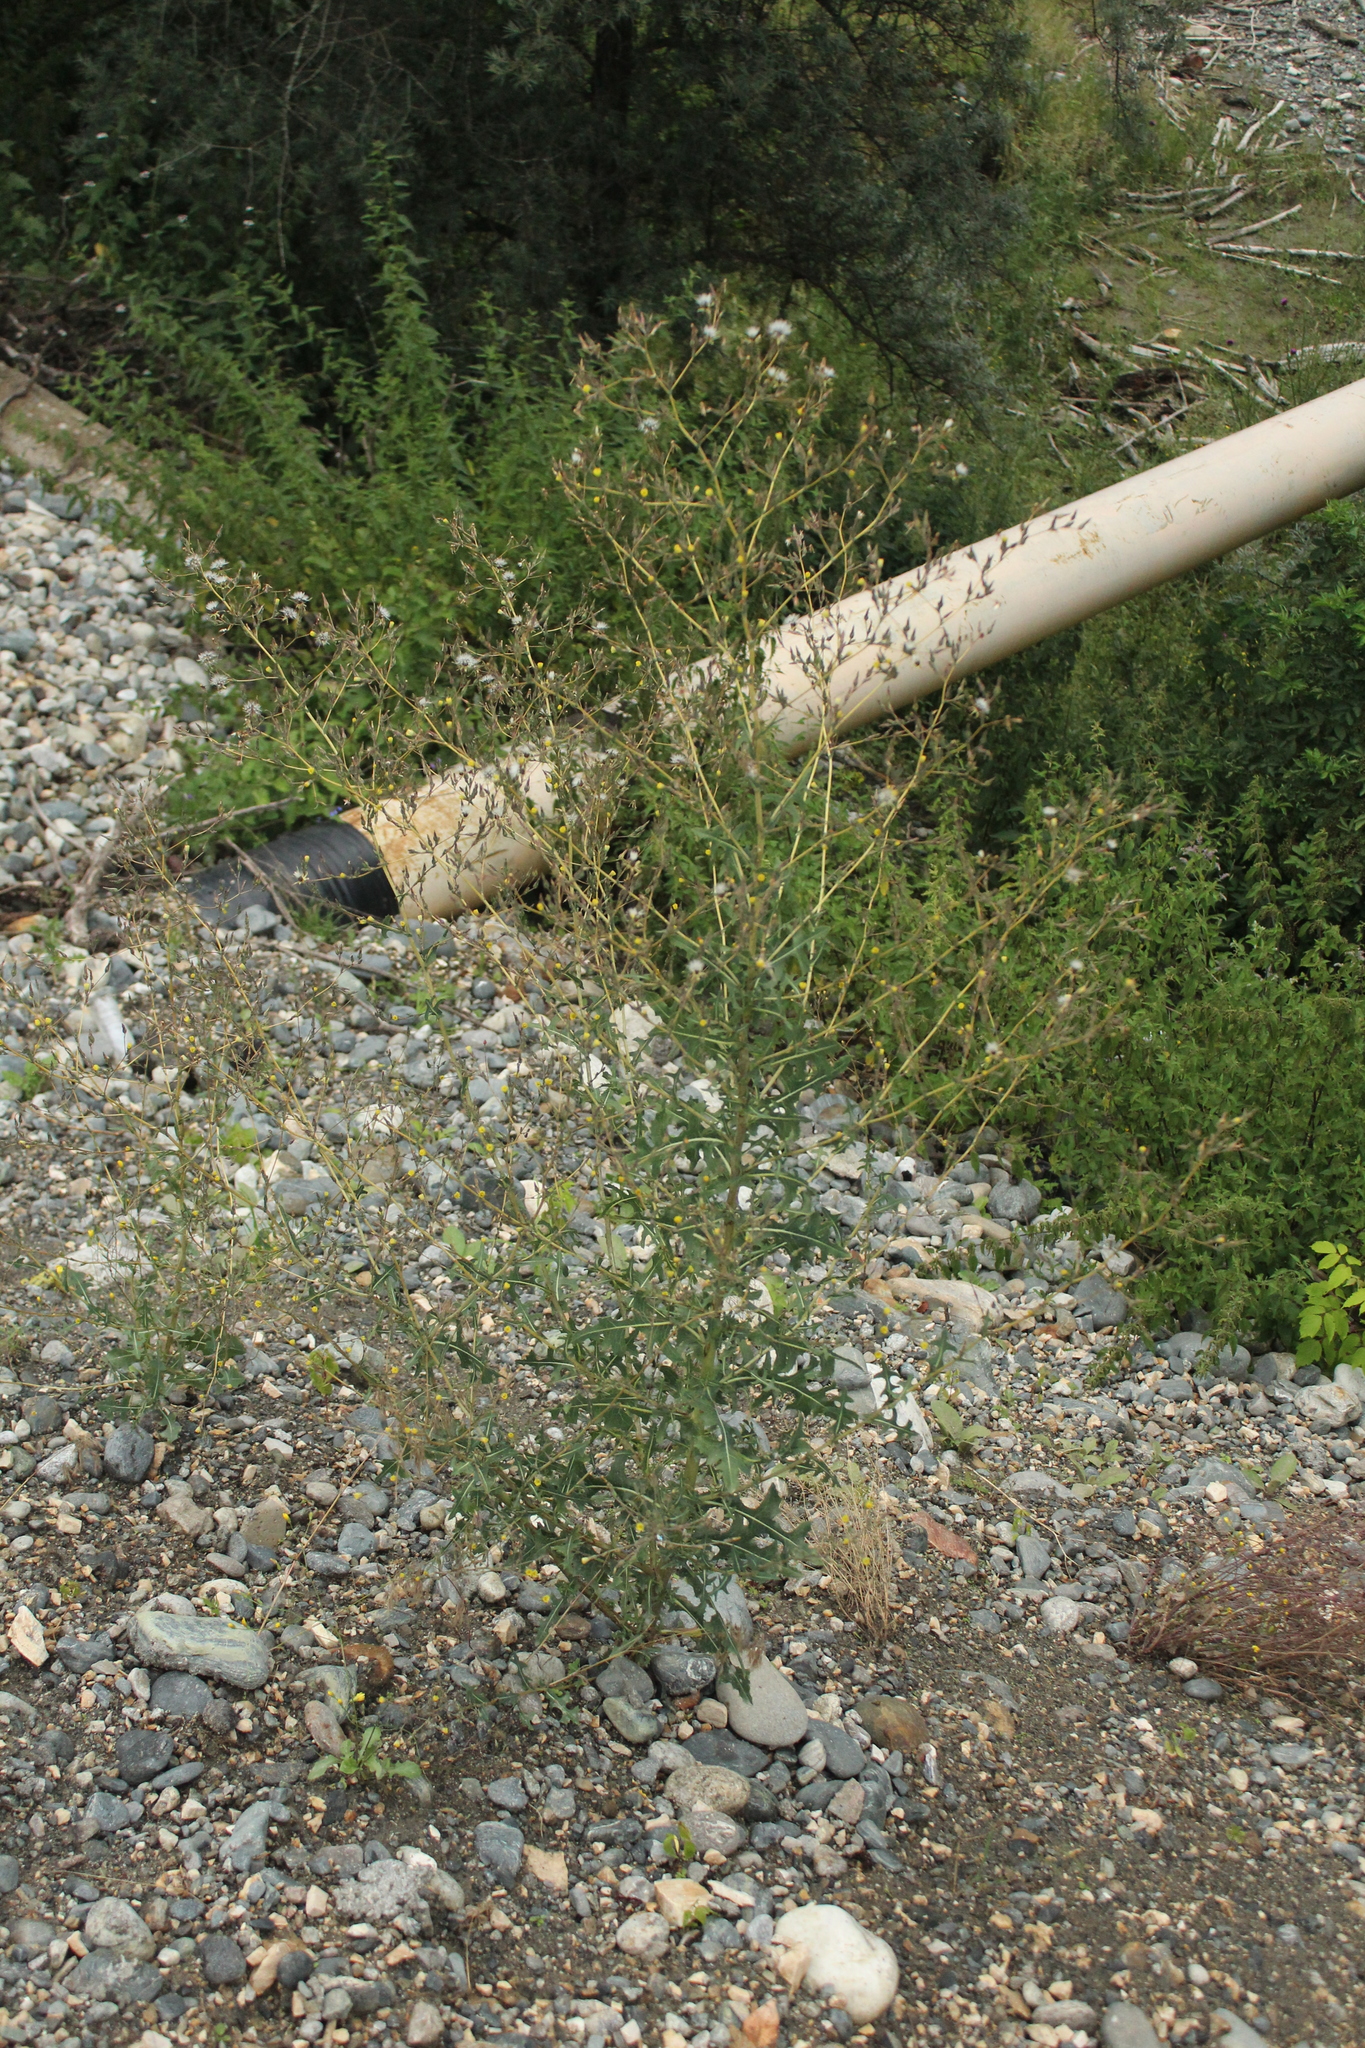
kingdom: Plantae
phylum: Tracheophyta
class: Magnoliopsida
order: Asterales
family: Asteraceae
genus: Lactuca
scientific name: Lactuca serriola
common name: Prickly lettuce
